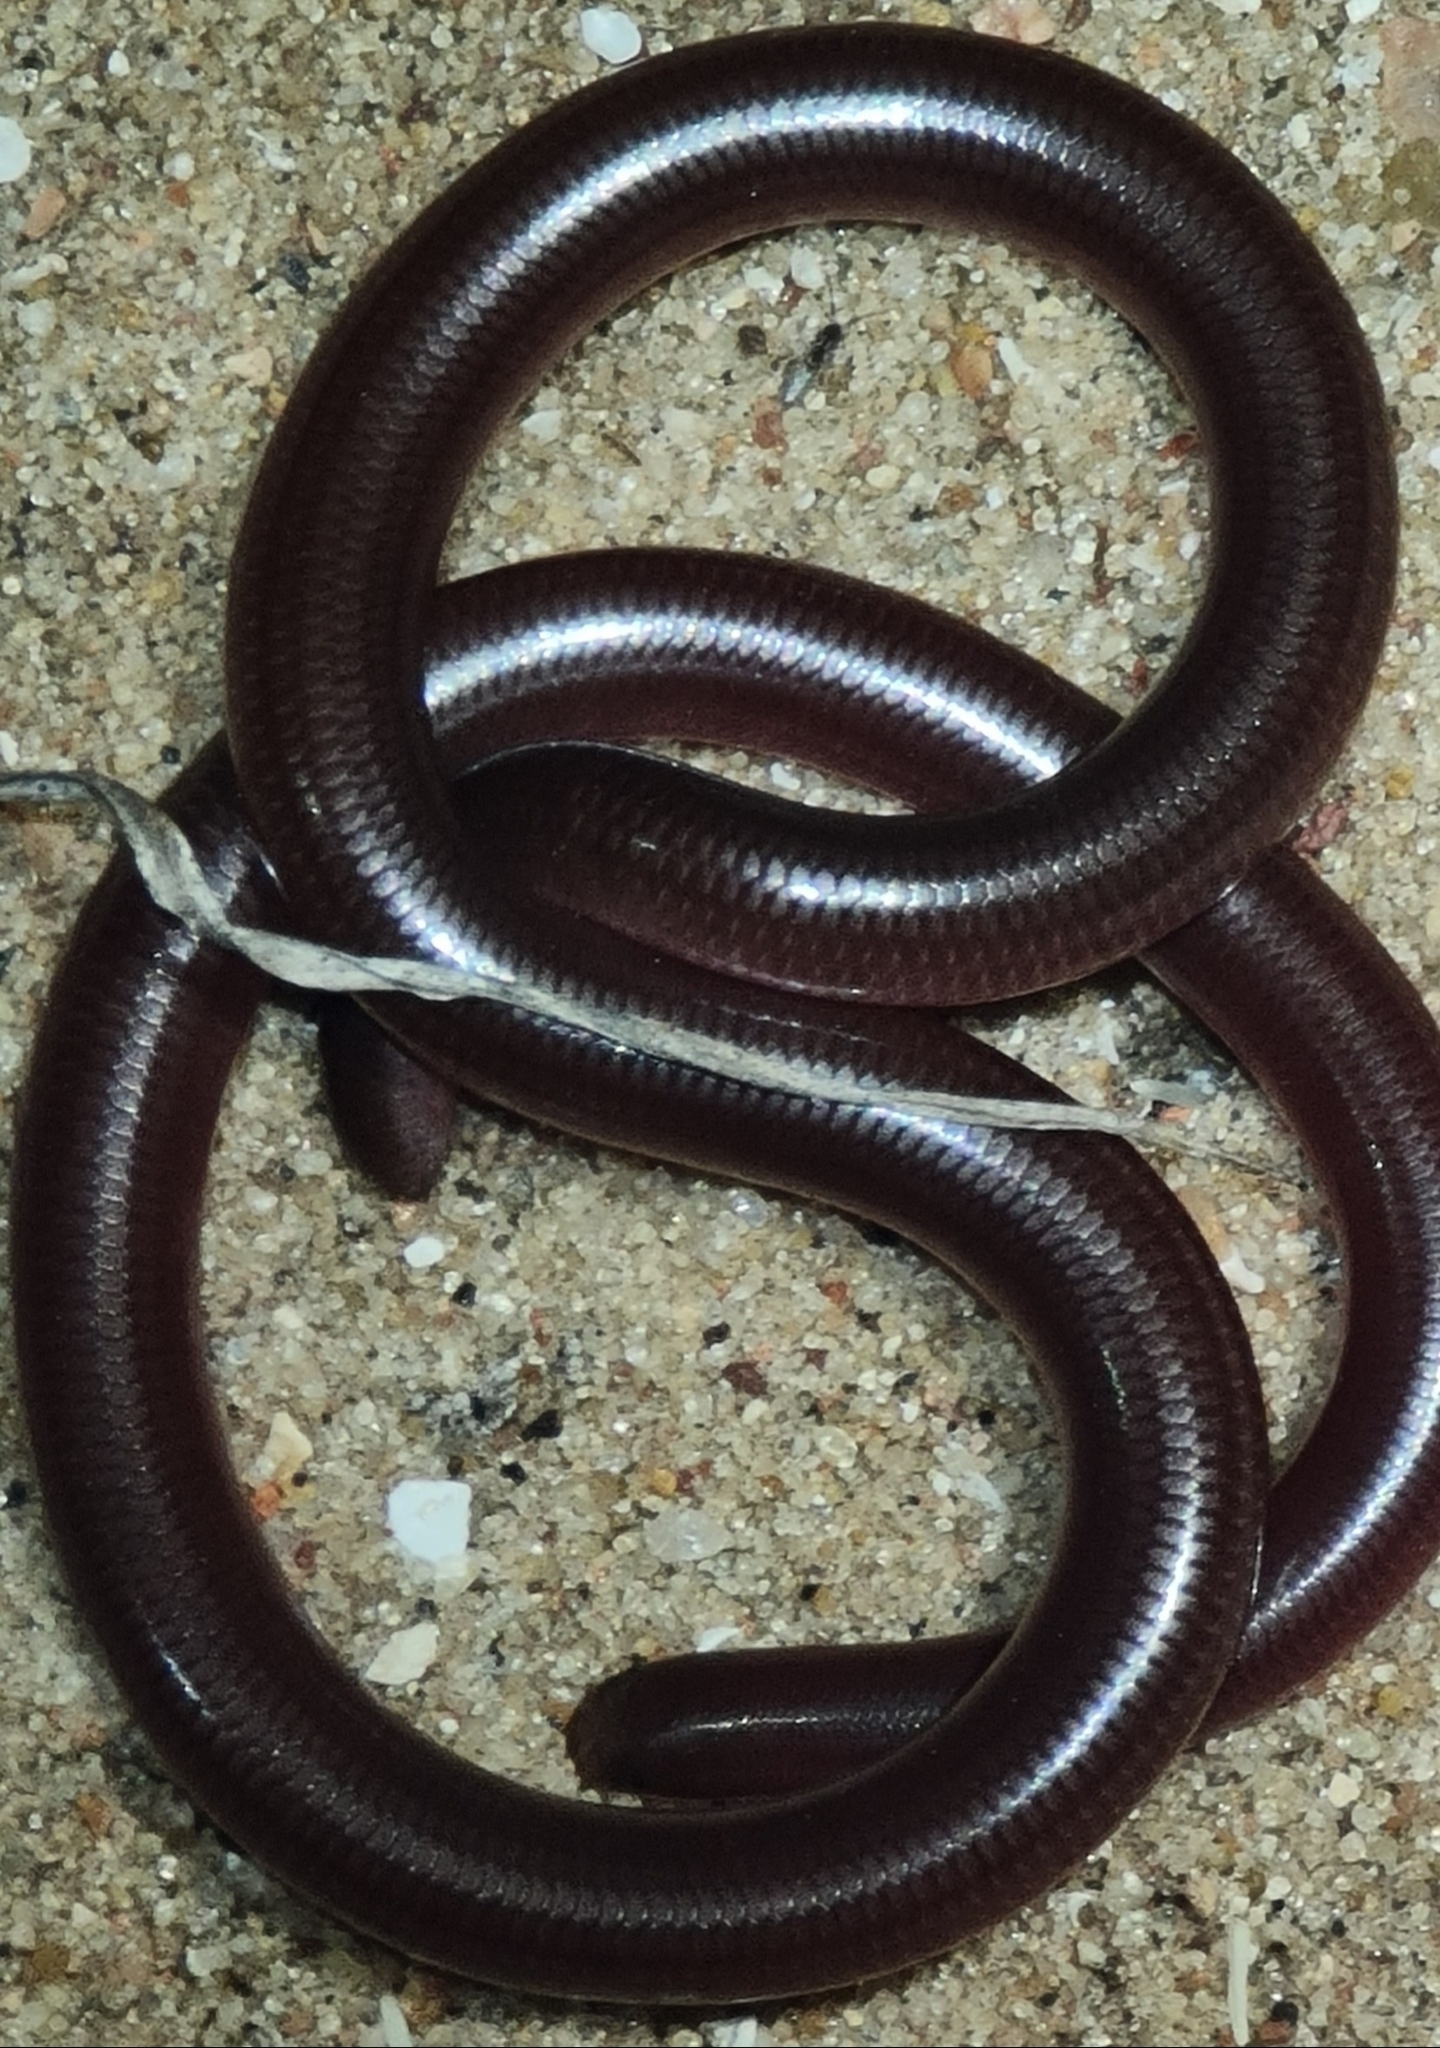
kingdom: Animalia
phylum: Chordata
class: Squamata
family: Typhlopidae
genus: Anilios
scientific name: Anilios bituberculatus
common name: Prong-snouted blind snake
